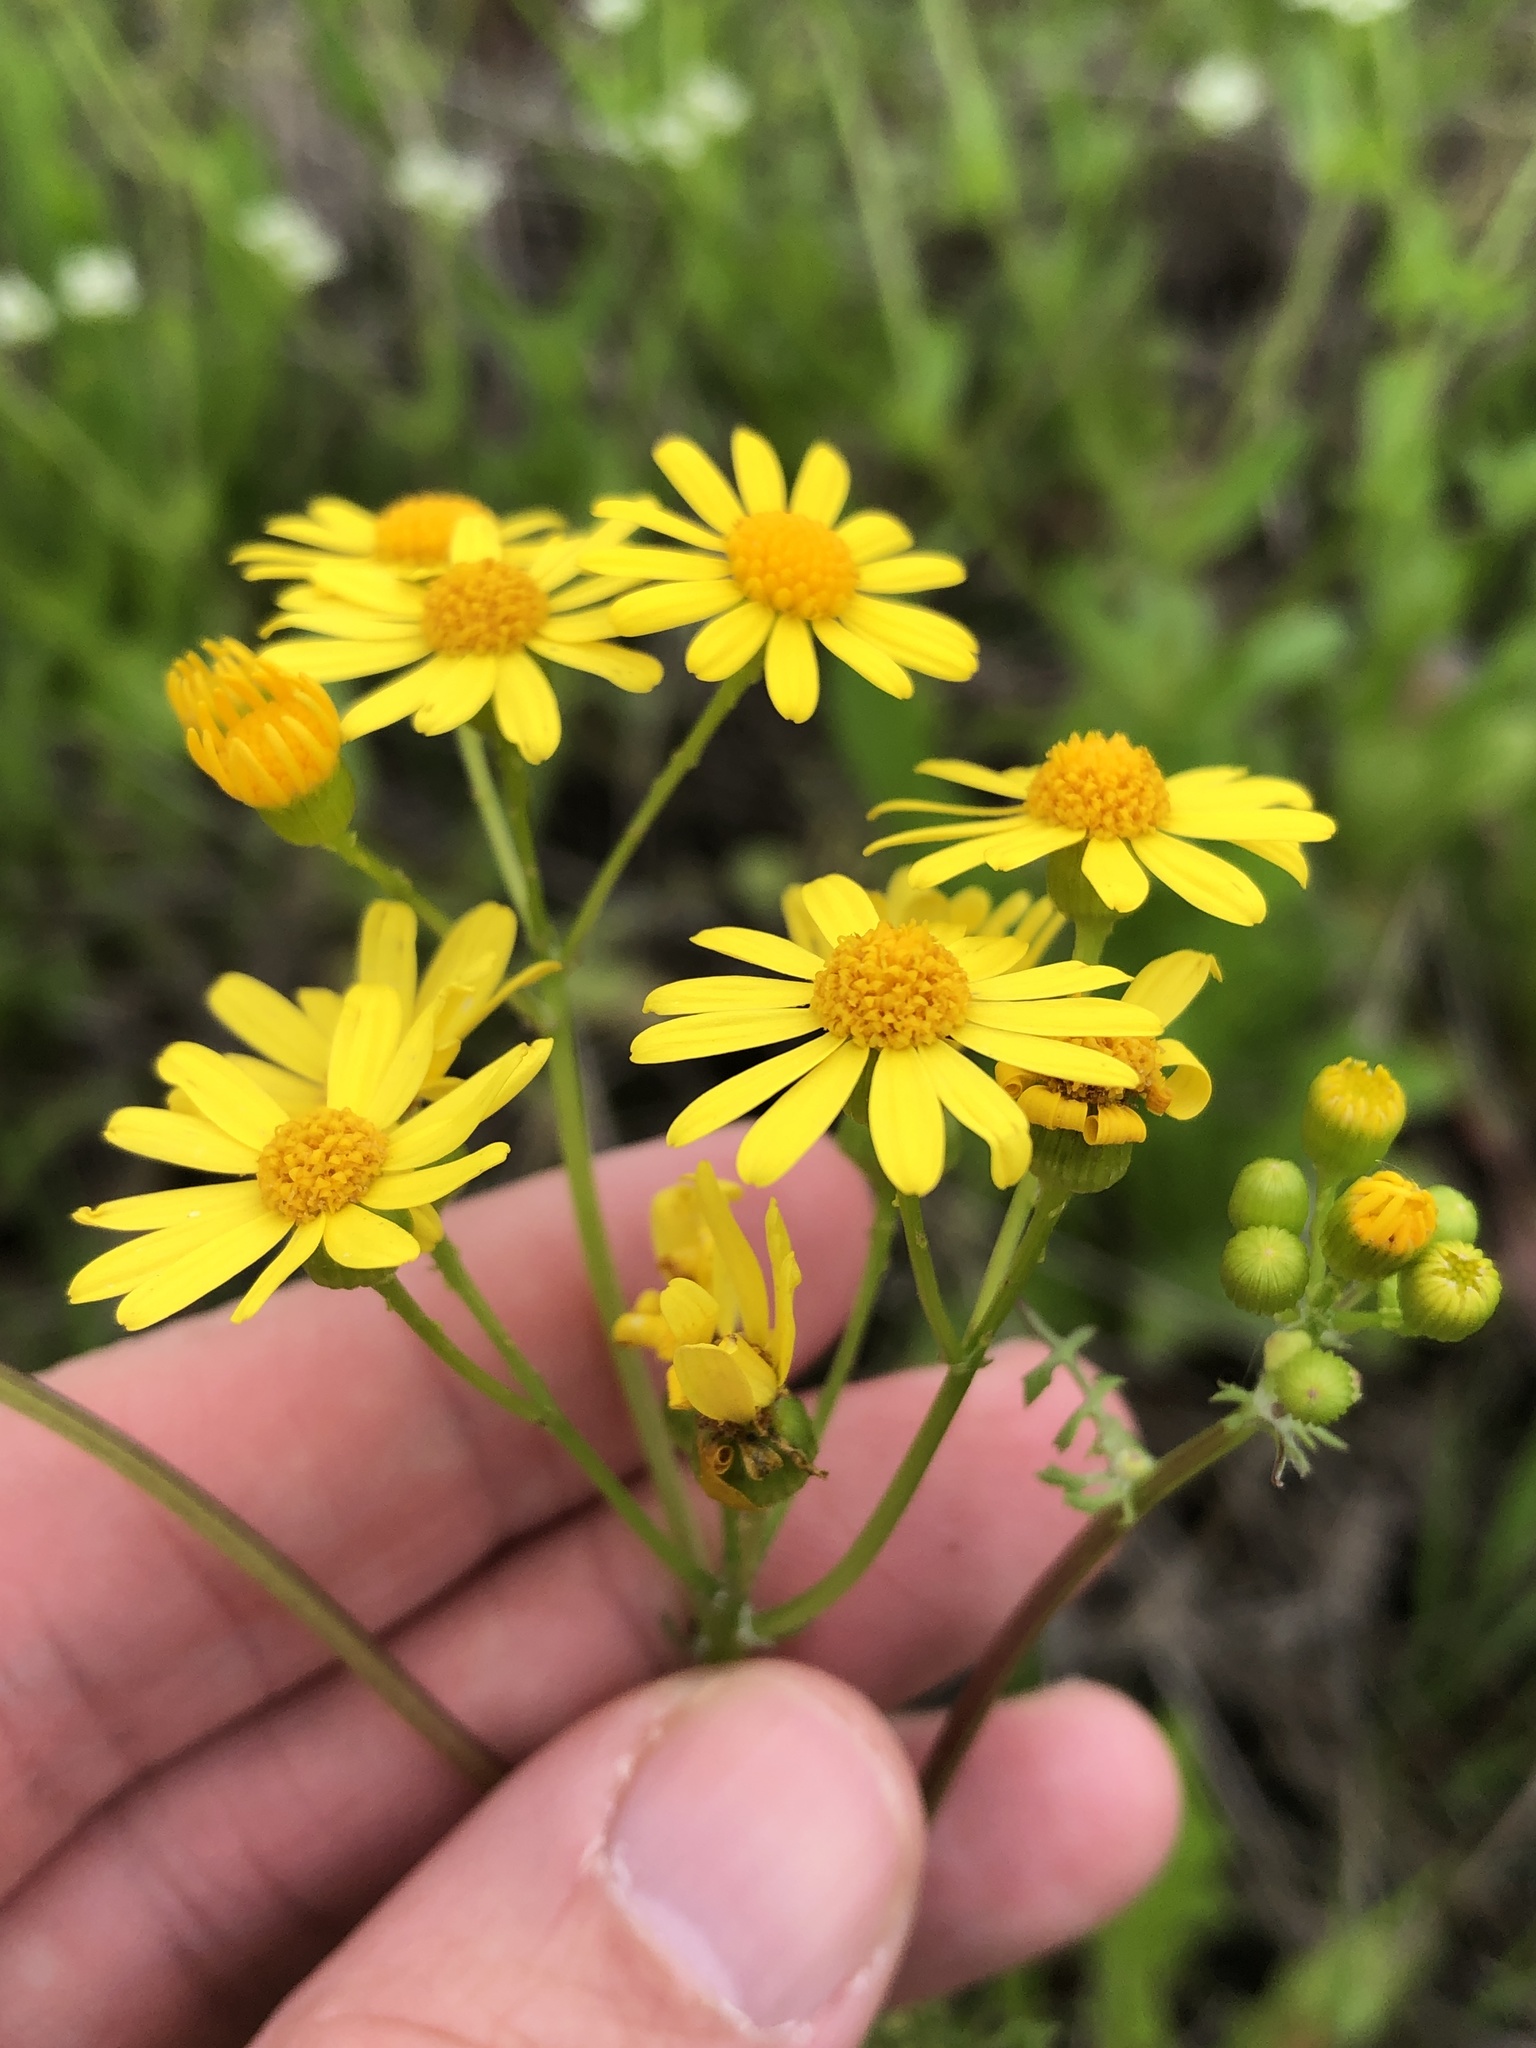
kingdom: Plantae
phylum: Tracheophyta
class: Magnoliopsida
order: Asterales
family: Asteraceae
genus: Packera
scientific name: Packera tampicana
